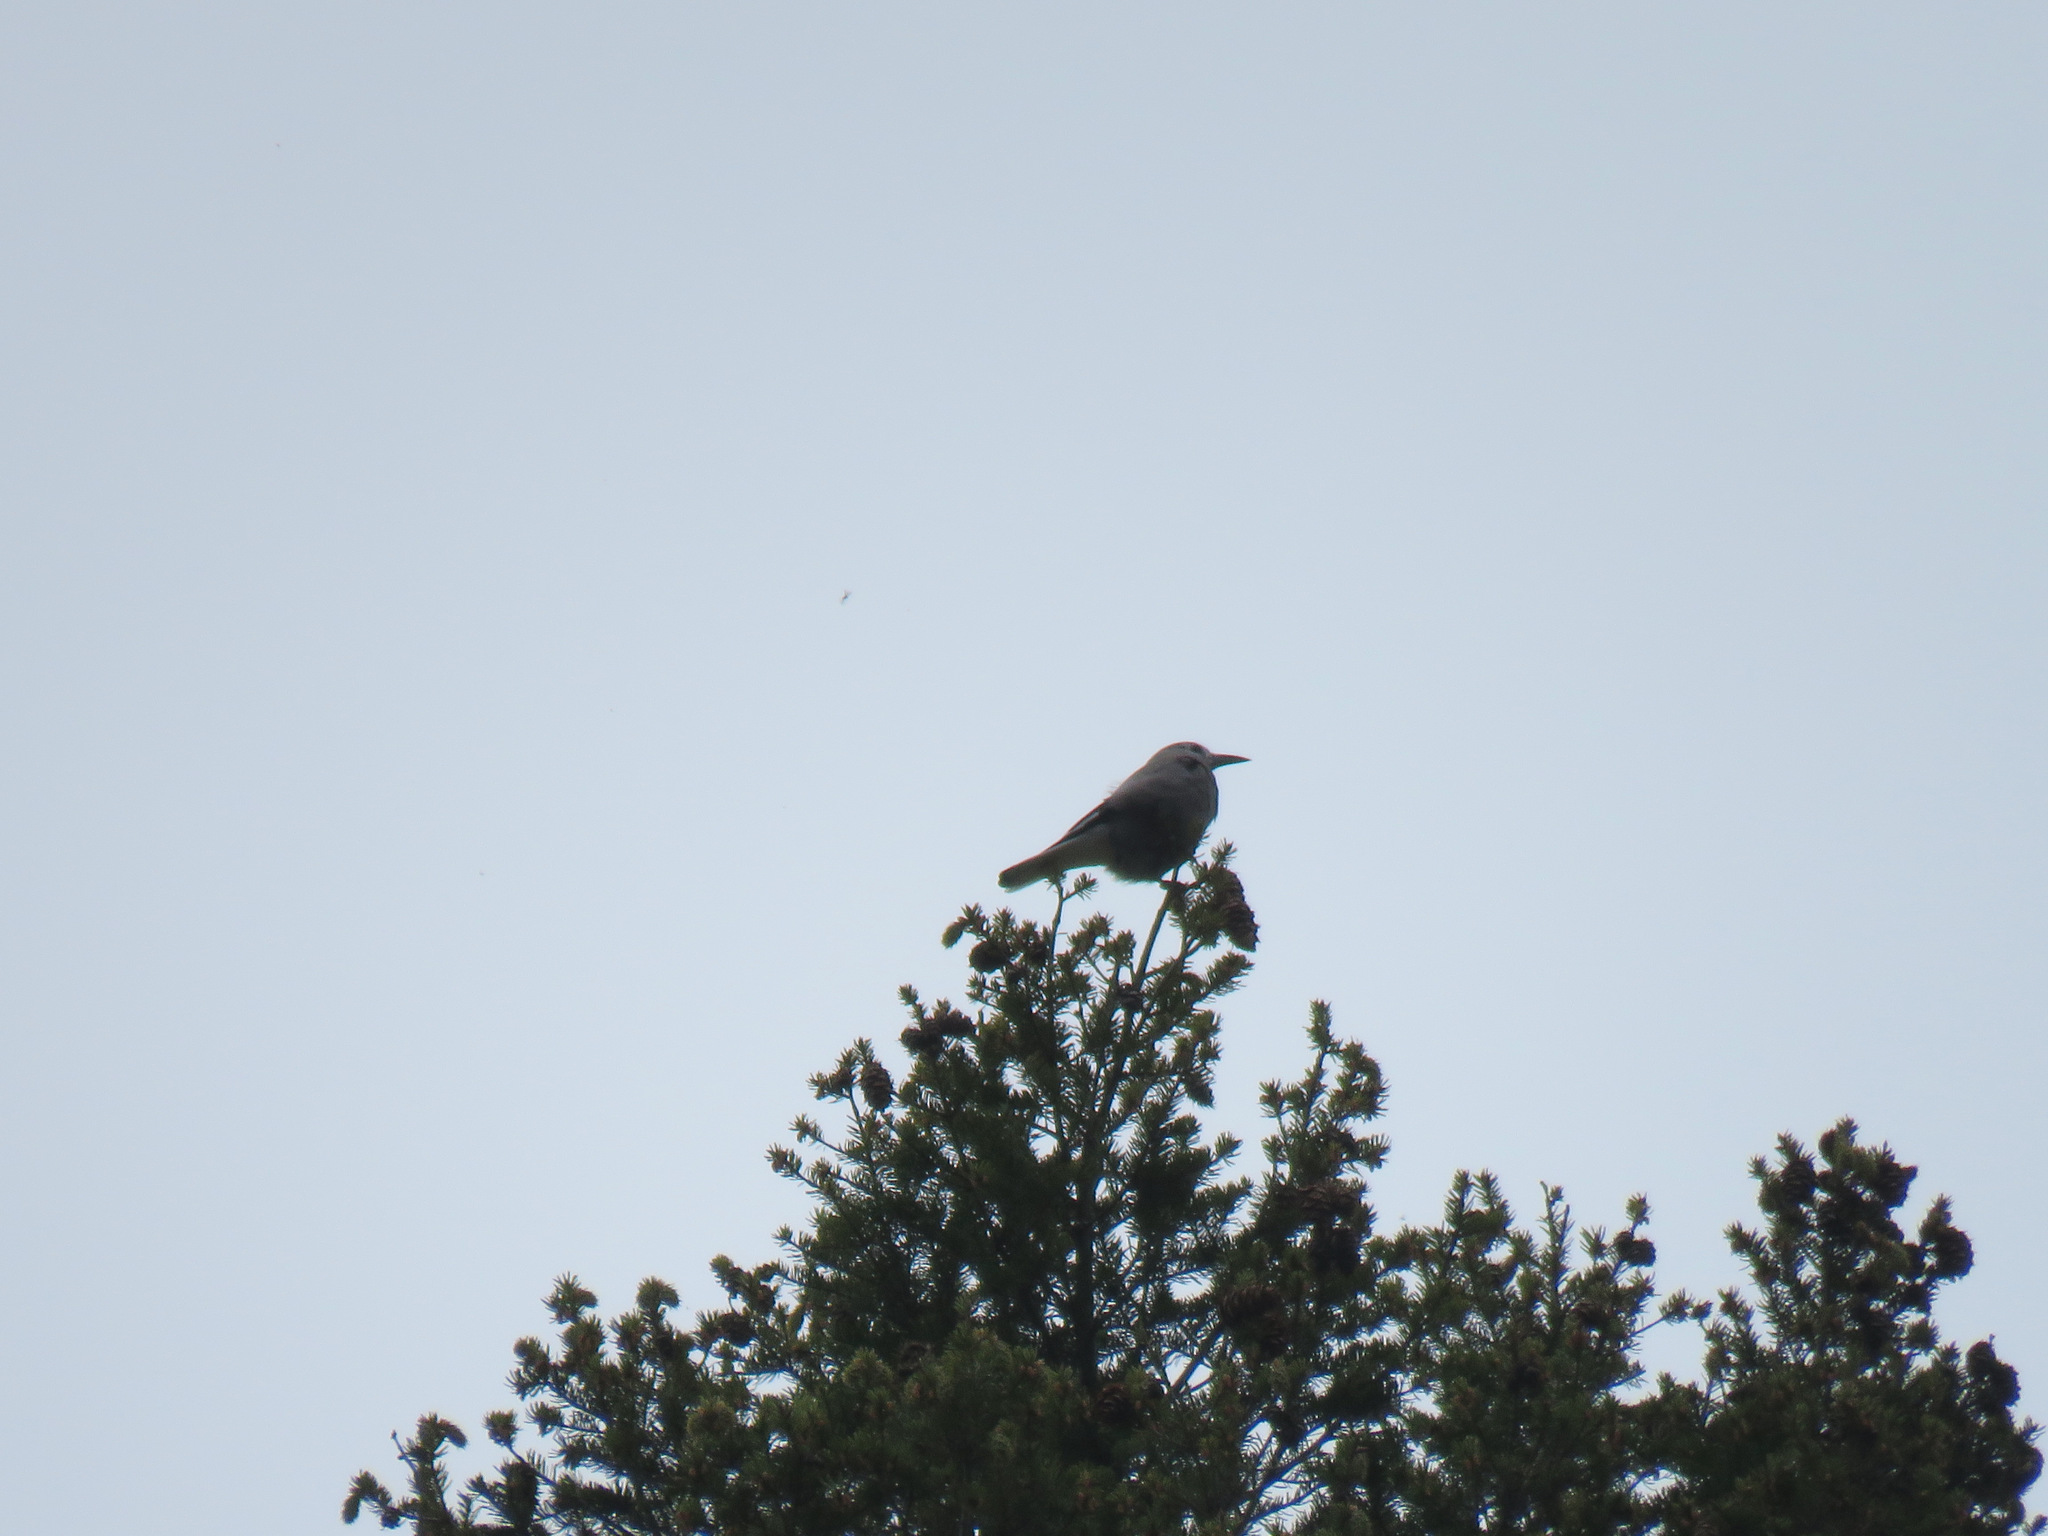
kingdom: Animalia
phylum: Chordata
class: Aves
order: Passeriformes
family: Corvidae
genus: Nucifraga
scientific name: Nucifraga columbiana
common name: Clark's nutcracker
